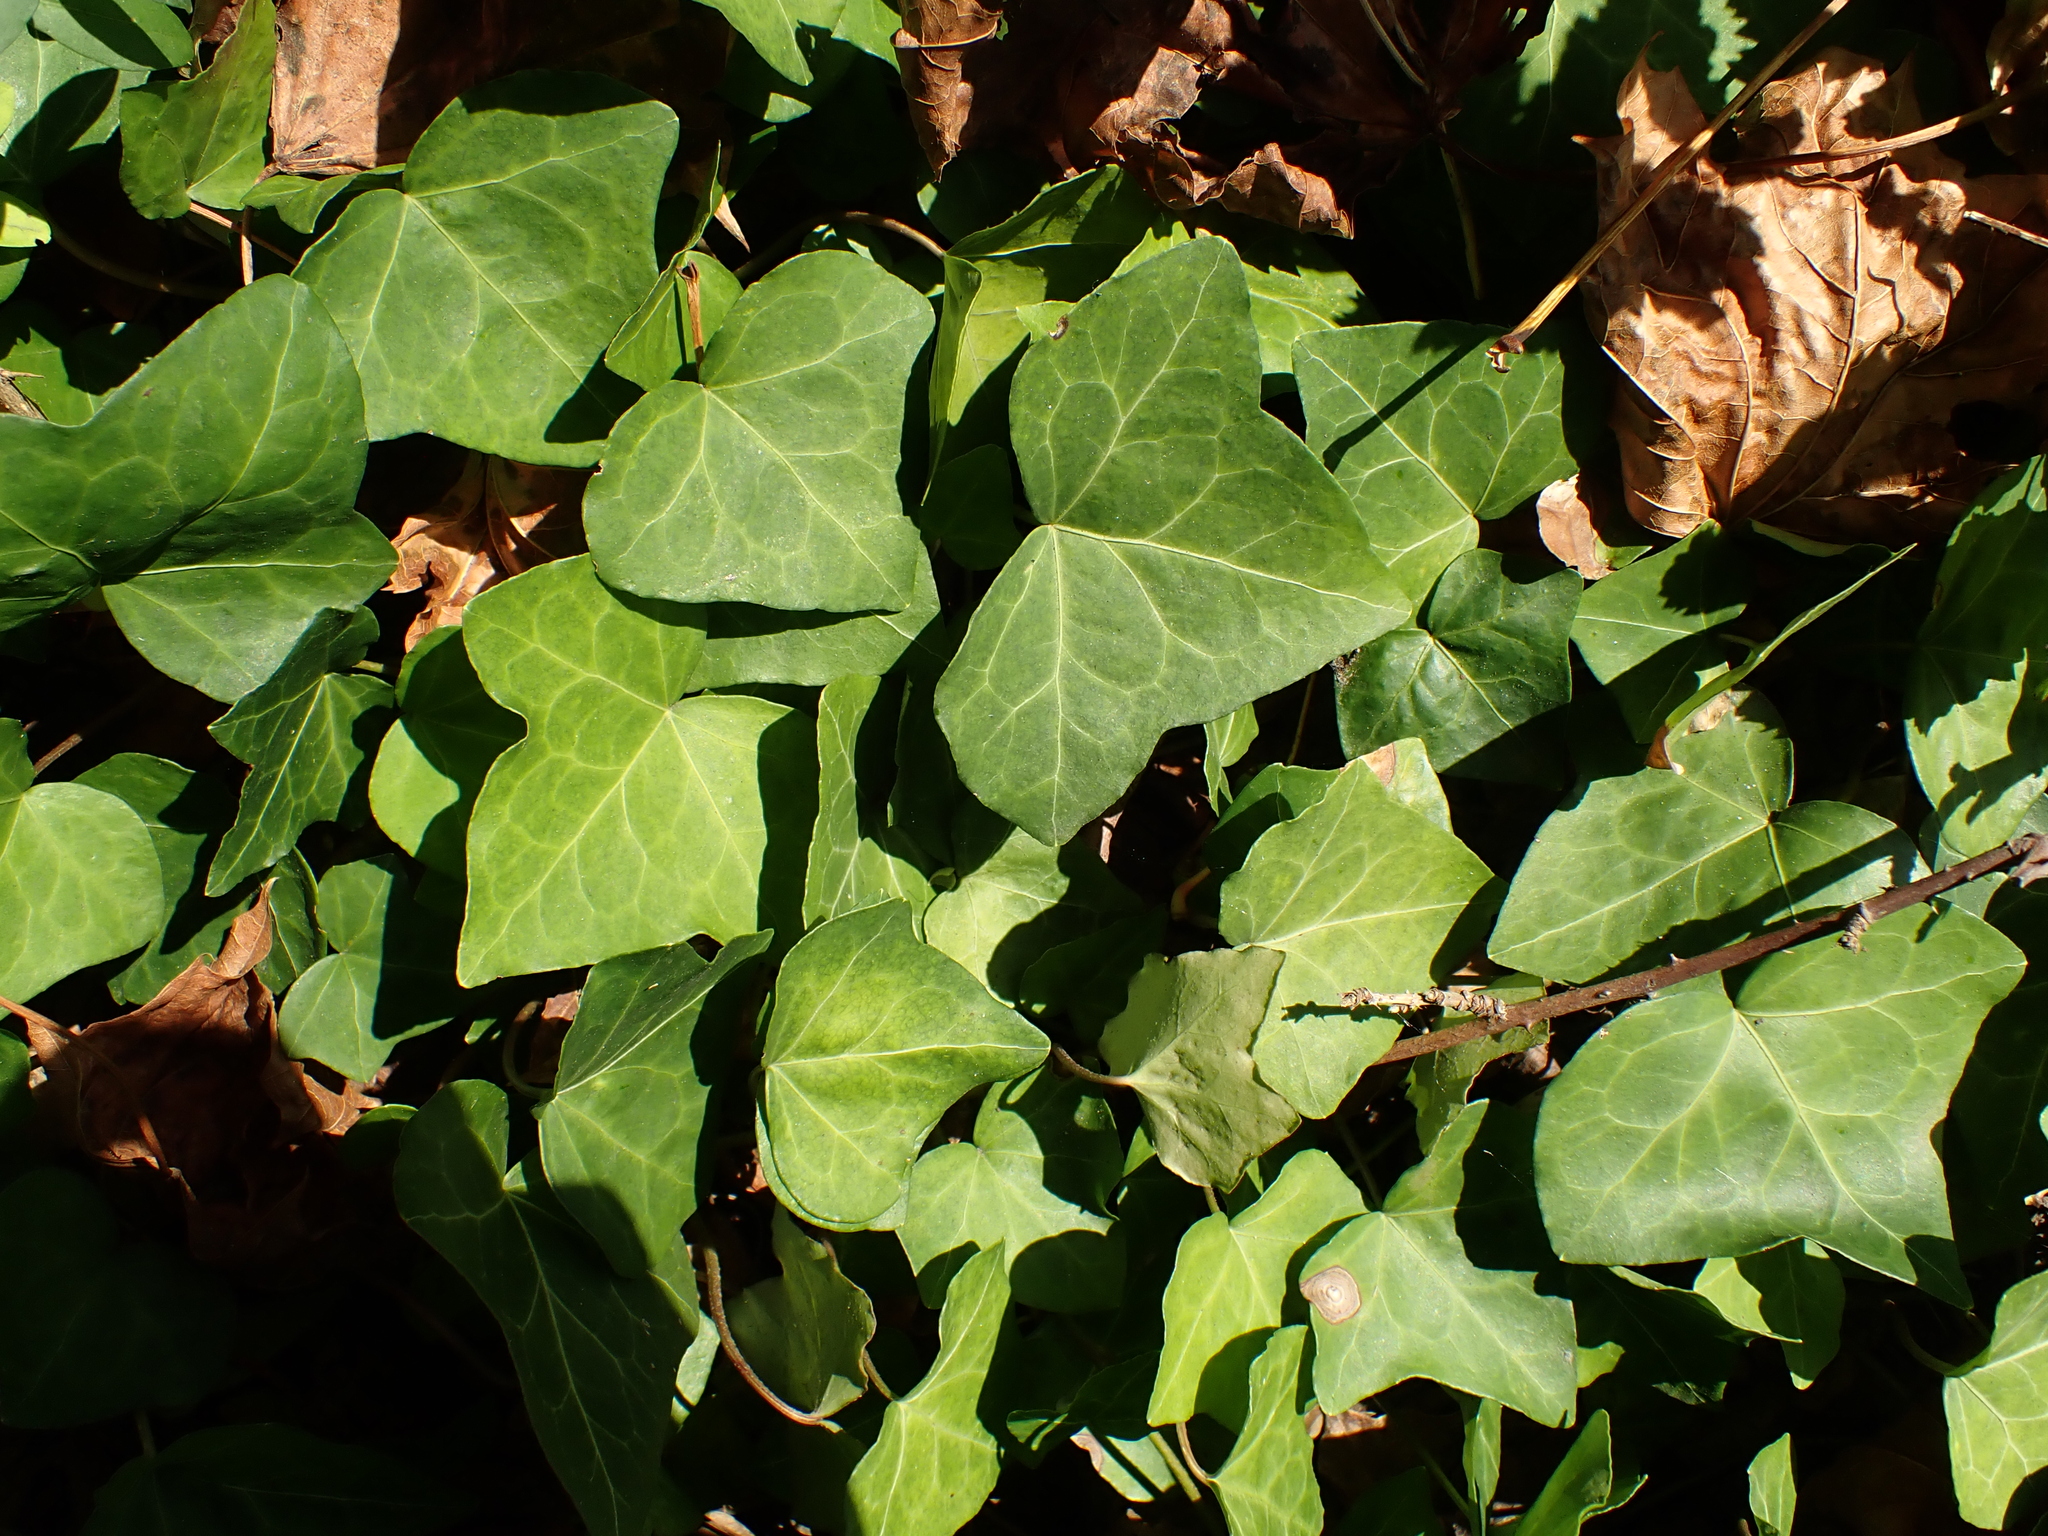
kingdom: Plantae
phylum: Tracheophyta
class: Magnoliopsida
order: Apiales
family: Araliaceae
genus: Hedera
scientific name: Hedera helix
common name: Ivy
